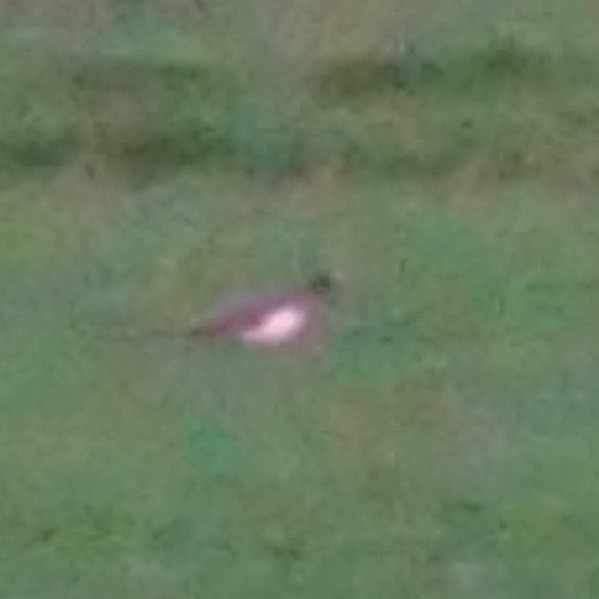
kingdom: Animalia
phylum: Chordata
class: Aves
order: Galliformes
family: Phasianidae
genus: Pavo
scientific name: Pavo cristatus
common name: Indian peafowl
